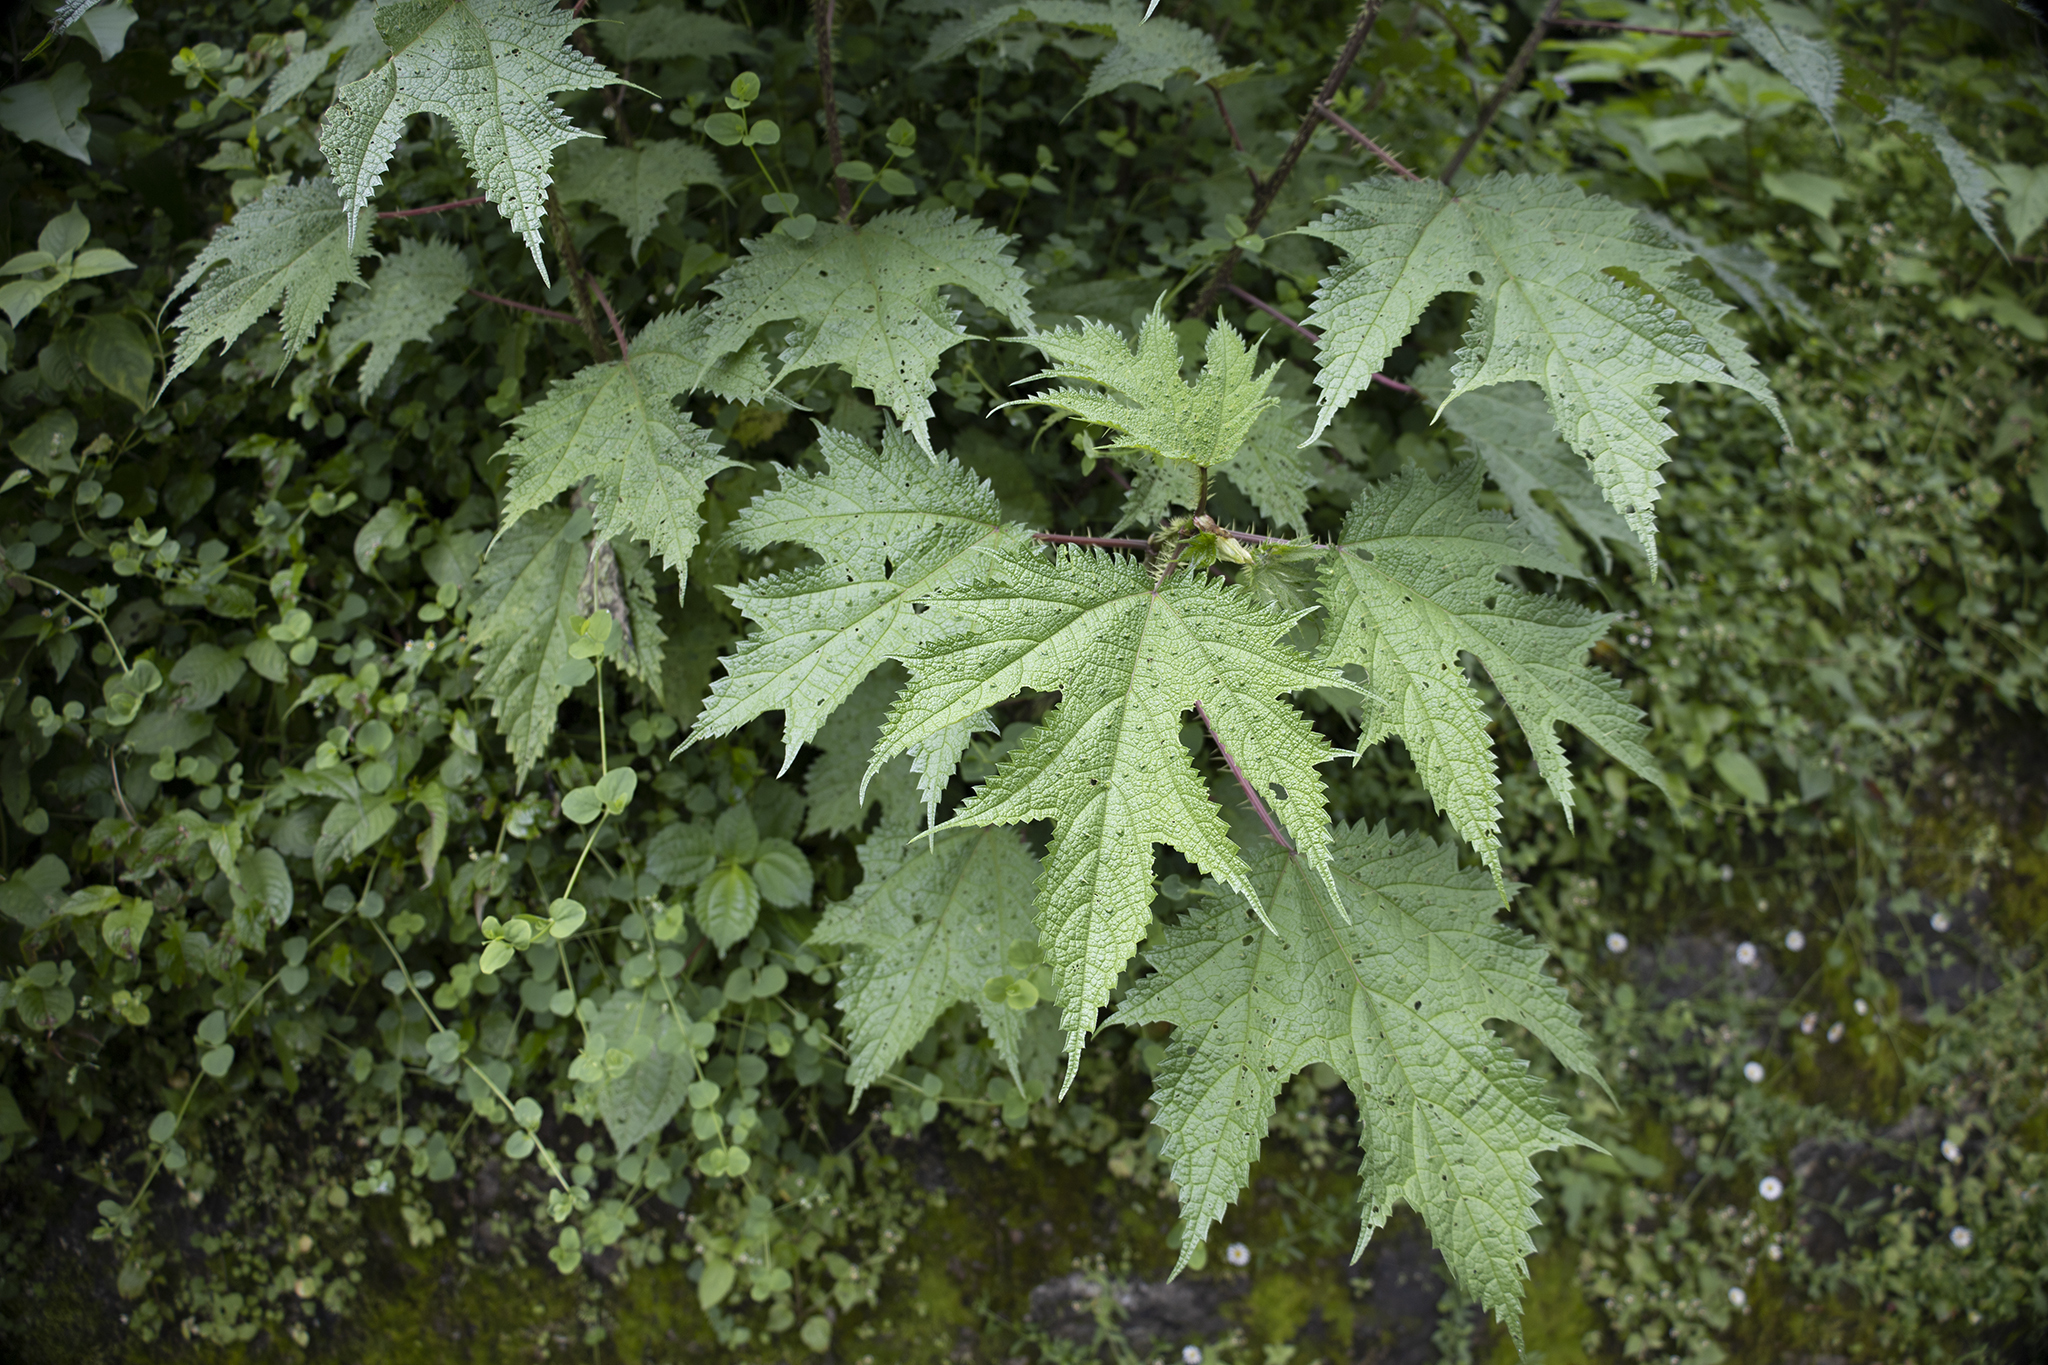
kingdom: Plantae
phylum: Tracheophyta
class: Magnoliopsida
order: Rosales
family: Urticaceae
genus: Girardinia
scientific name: Girardinia diversifolia
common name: Himalayan-nettle
